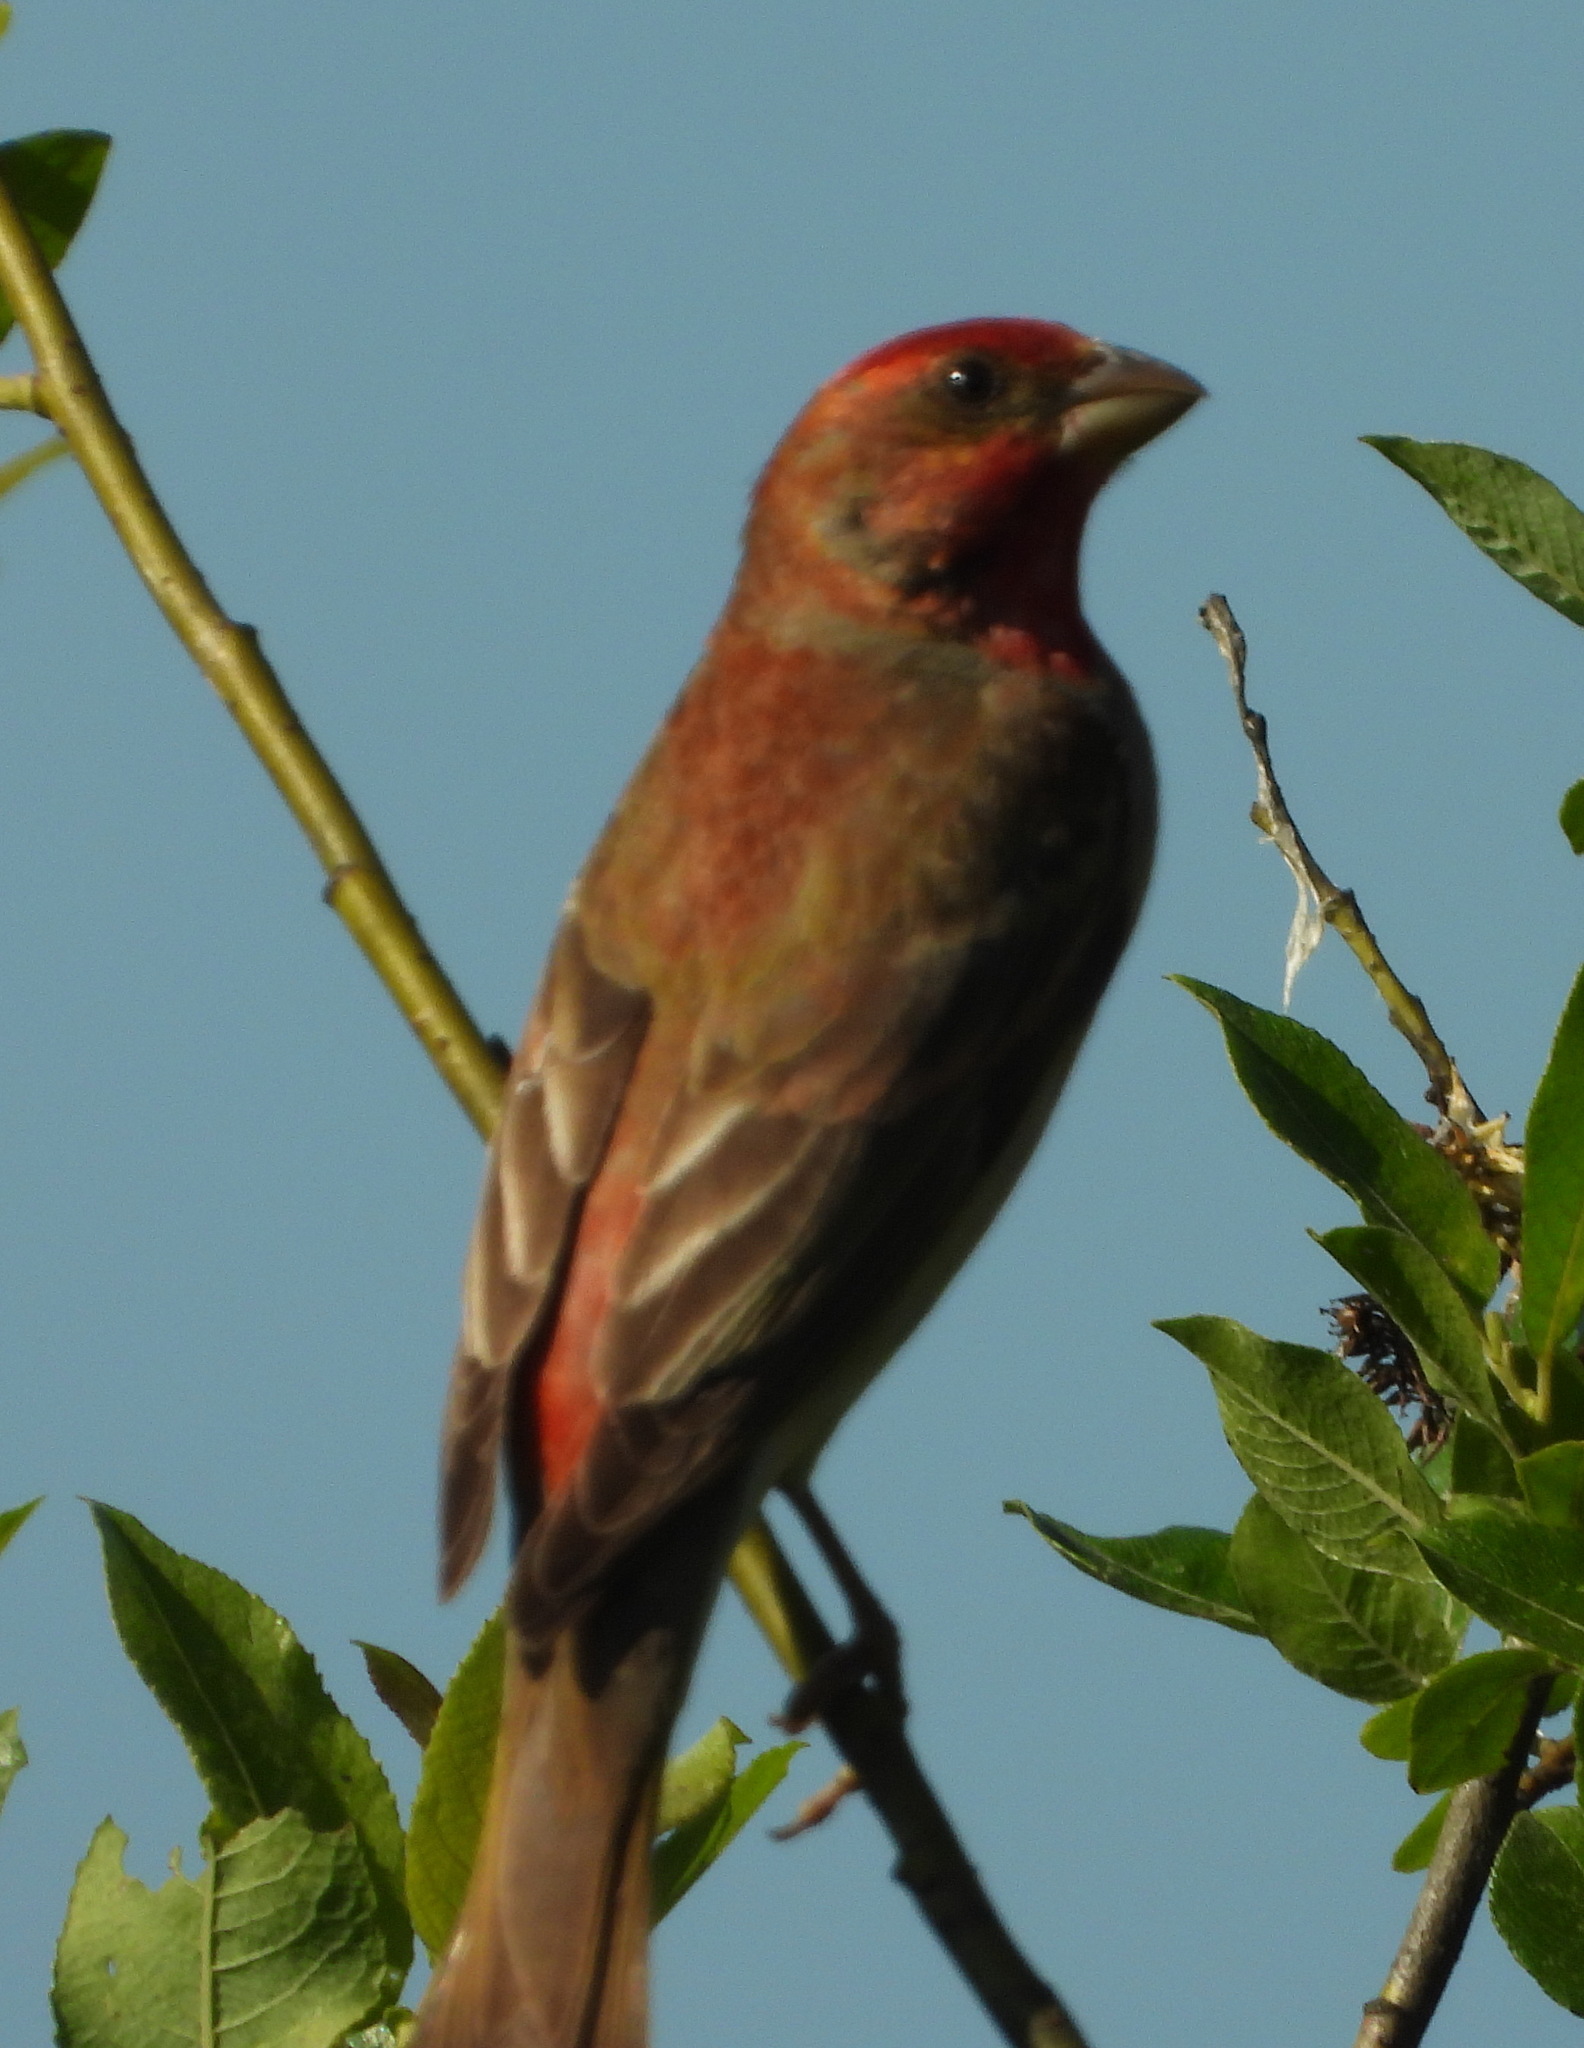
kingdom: Animalia
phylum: Chordata
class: Aves
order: Passeriformes
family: Fringillidae
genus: Carpodacus
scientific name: Carpodacus erythrinus
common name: Common rosefinch
